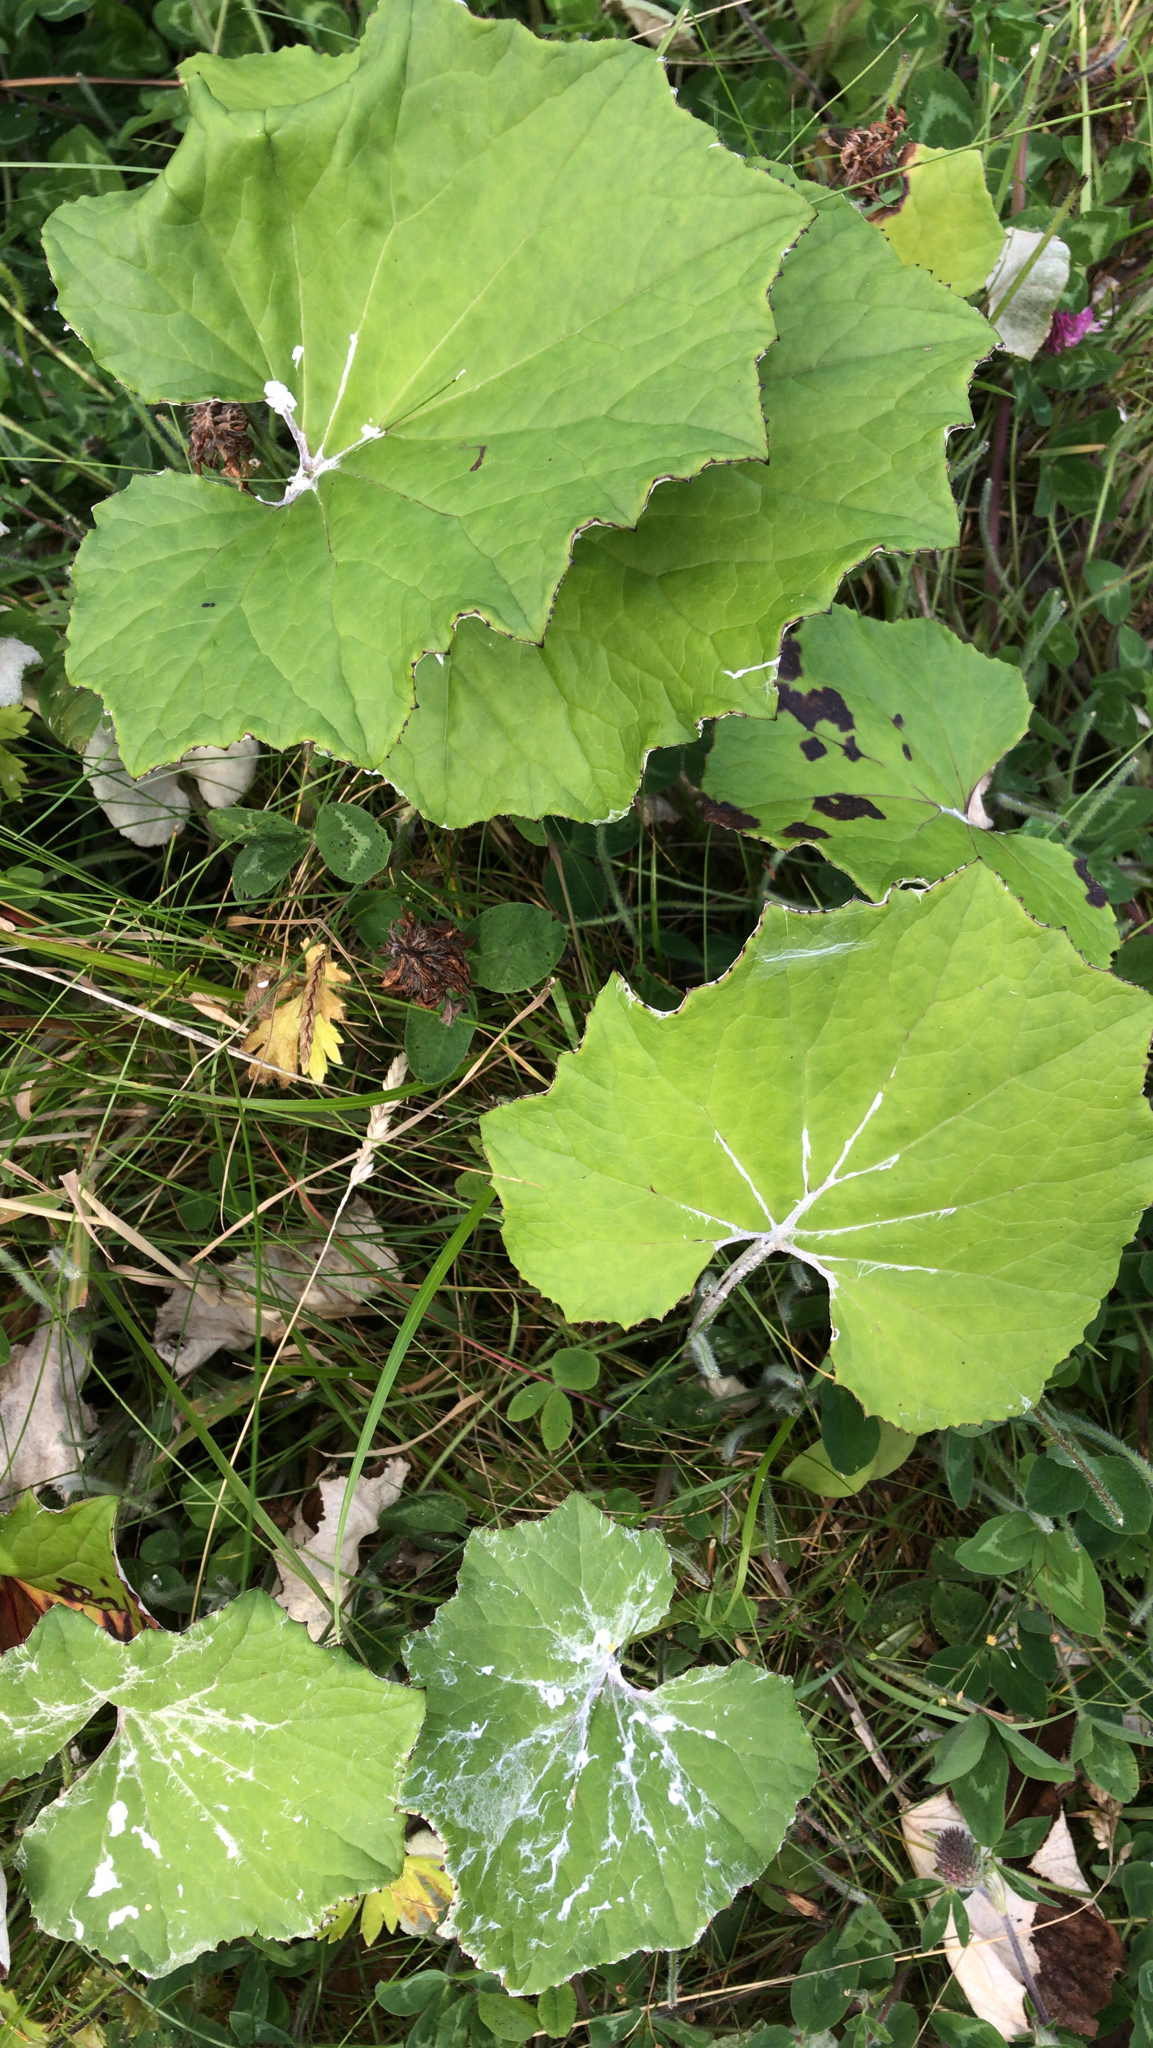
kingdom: Plantae
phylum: Tracheophyta
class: Magnoliopsida
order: Asterales
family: Asteraceae
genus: Tussilago
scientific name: Tussilago farfara
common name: Coltsfoot
